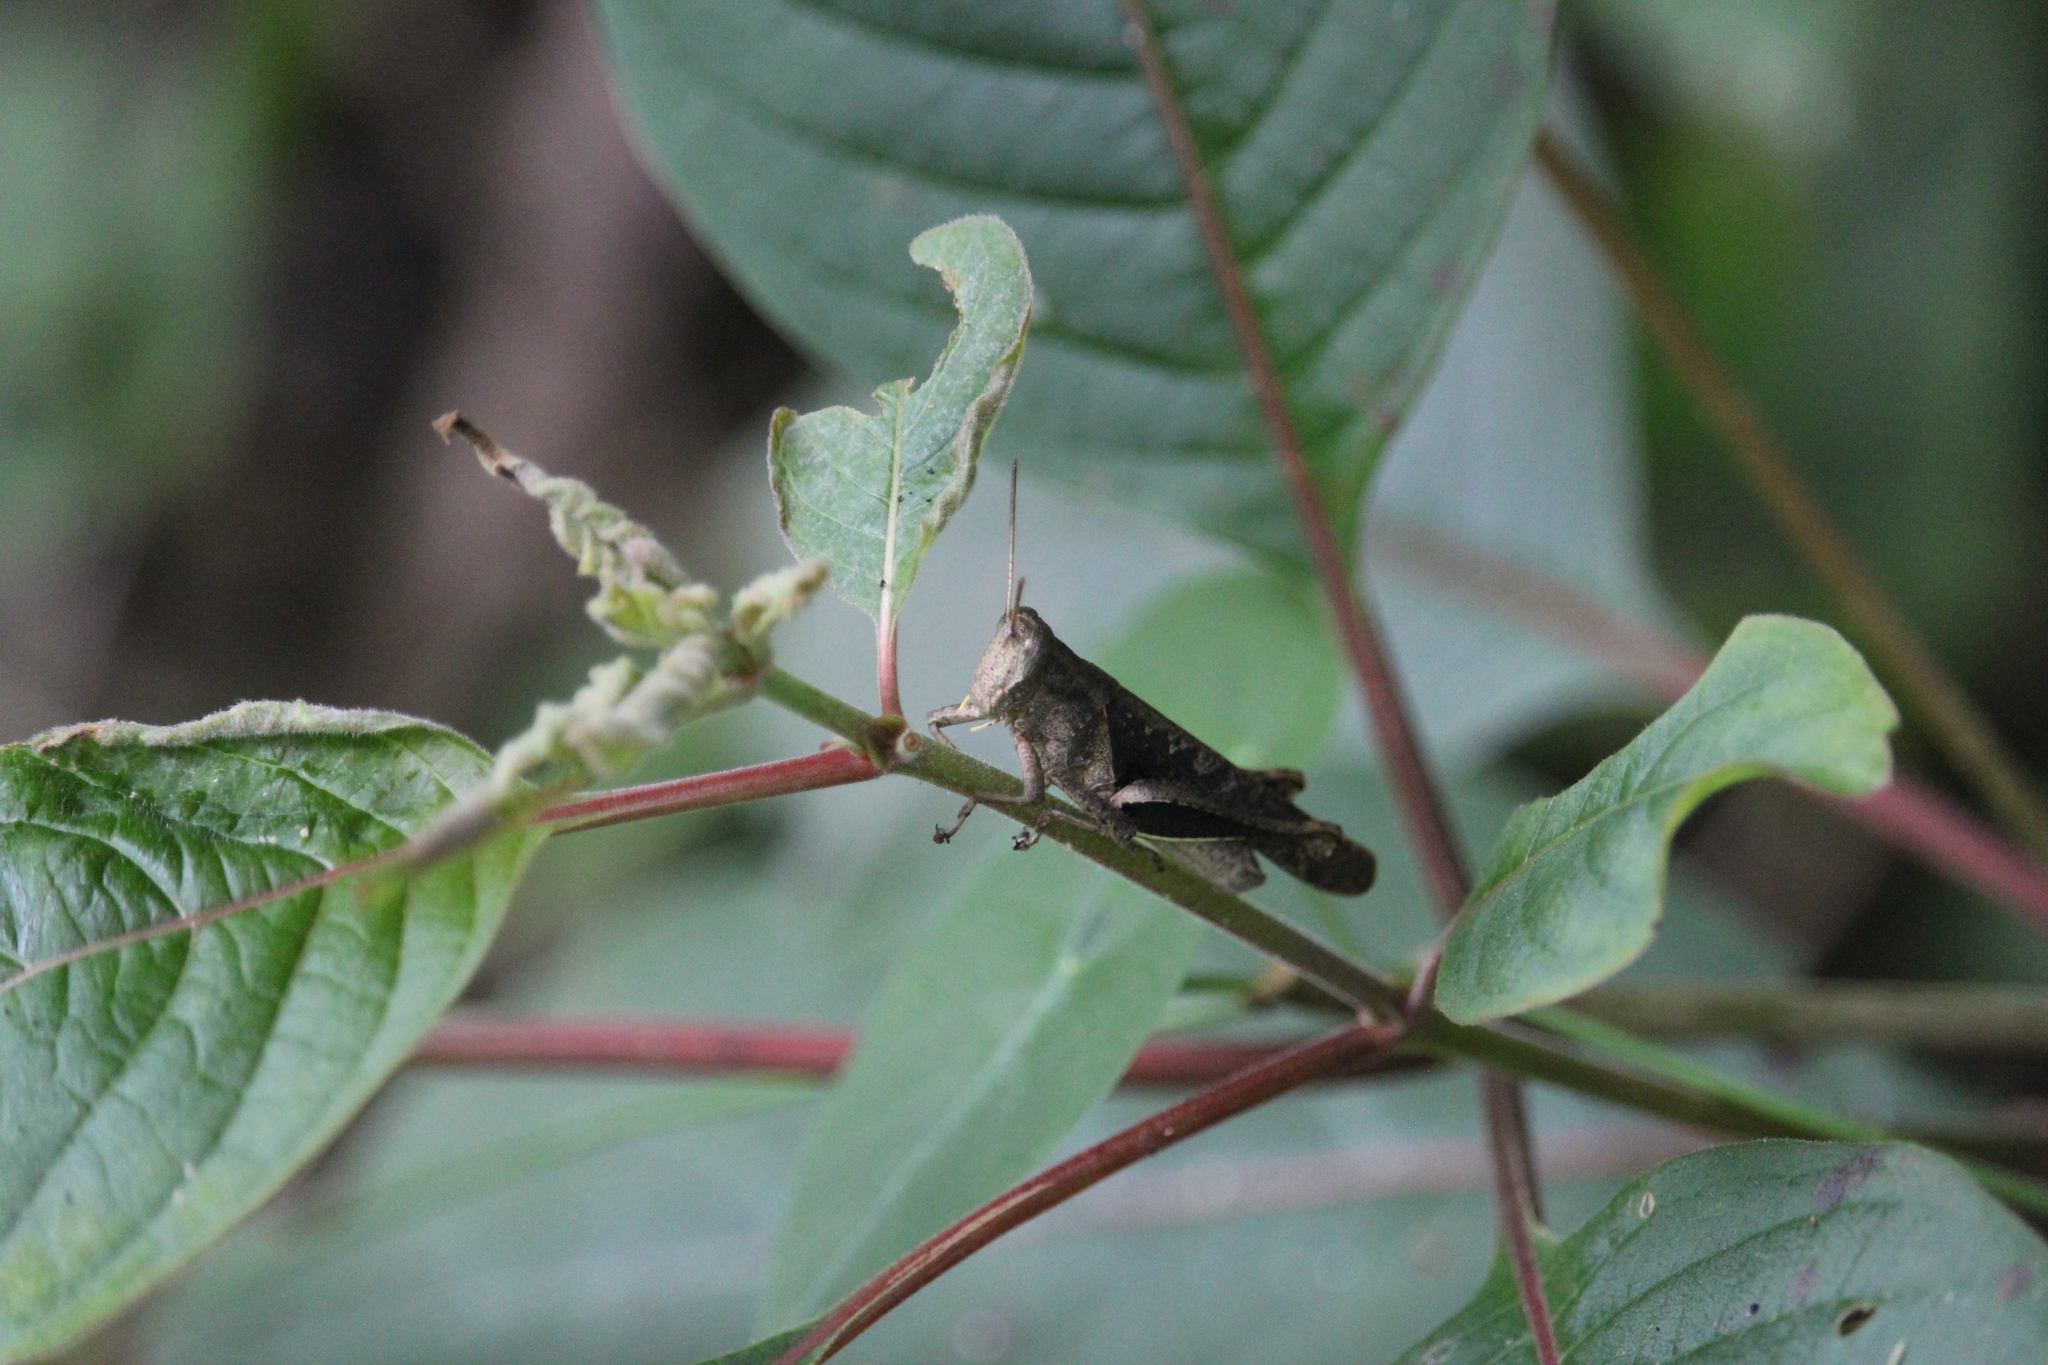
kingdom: Animalia
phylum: Arthropoda
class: Insecta
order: Orthoptera
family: Acrididae
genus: Abracris
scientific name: Abracris flavolineata
